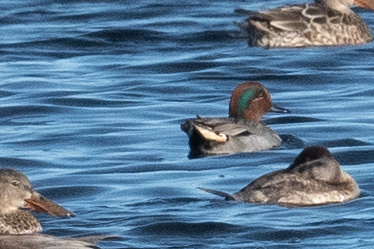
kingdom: Animalia
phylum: Chordata
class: Aves
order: Anseriformes
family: Anatidae
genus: Anas
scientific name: Anas crecca
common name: Eurasian teal
